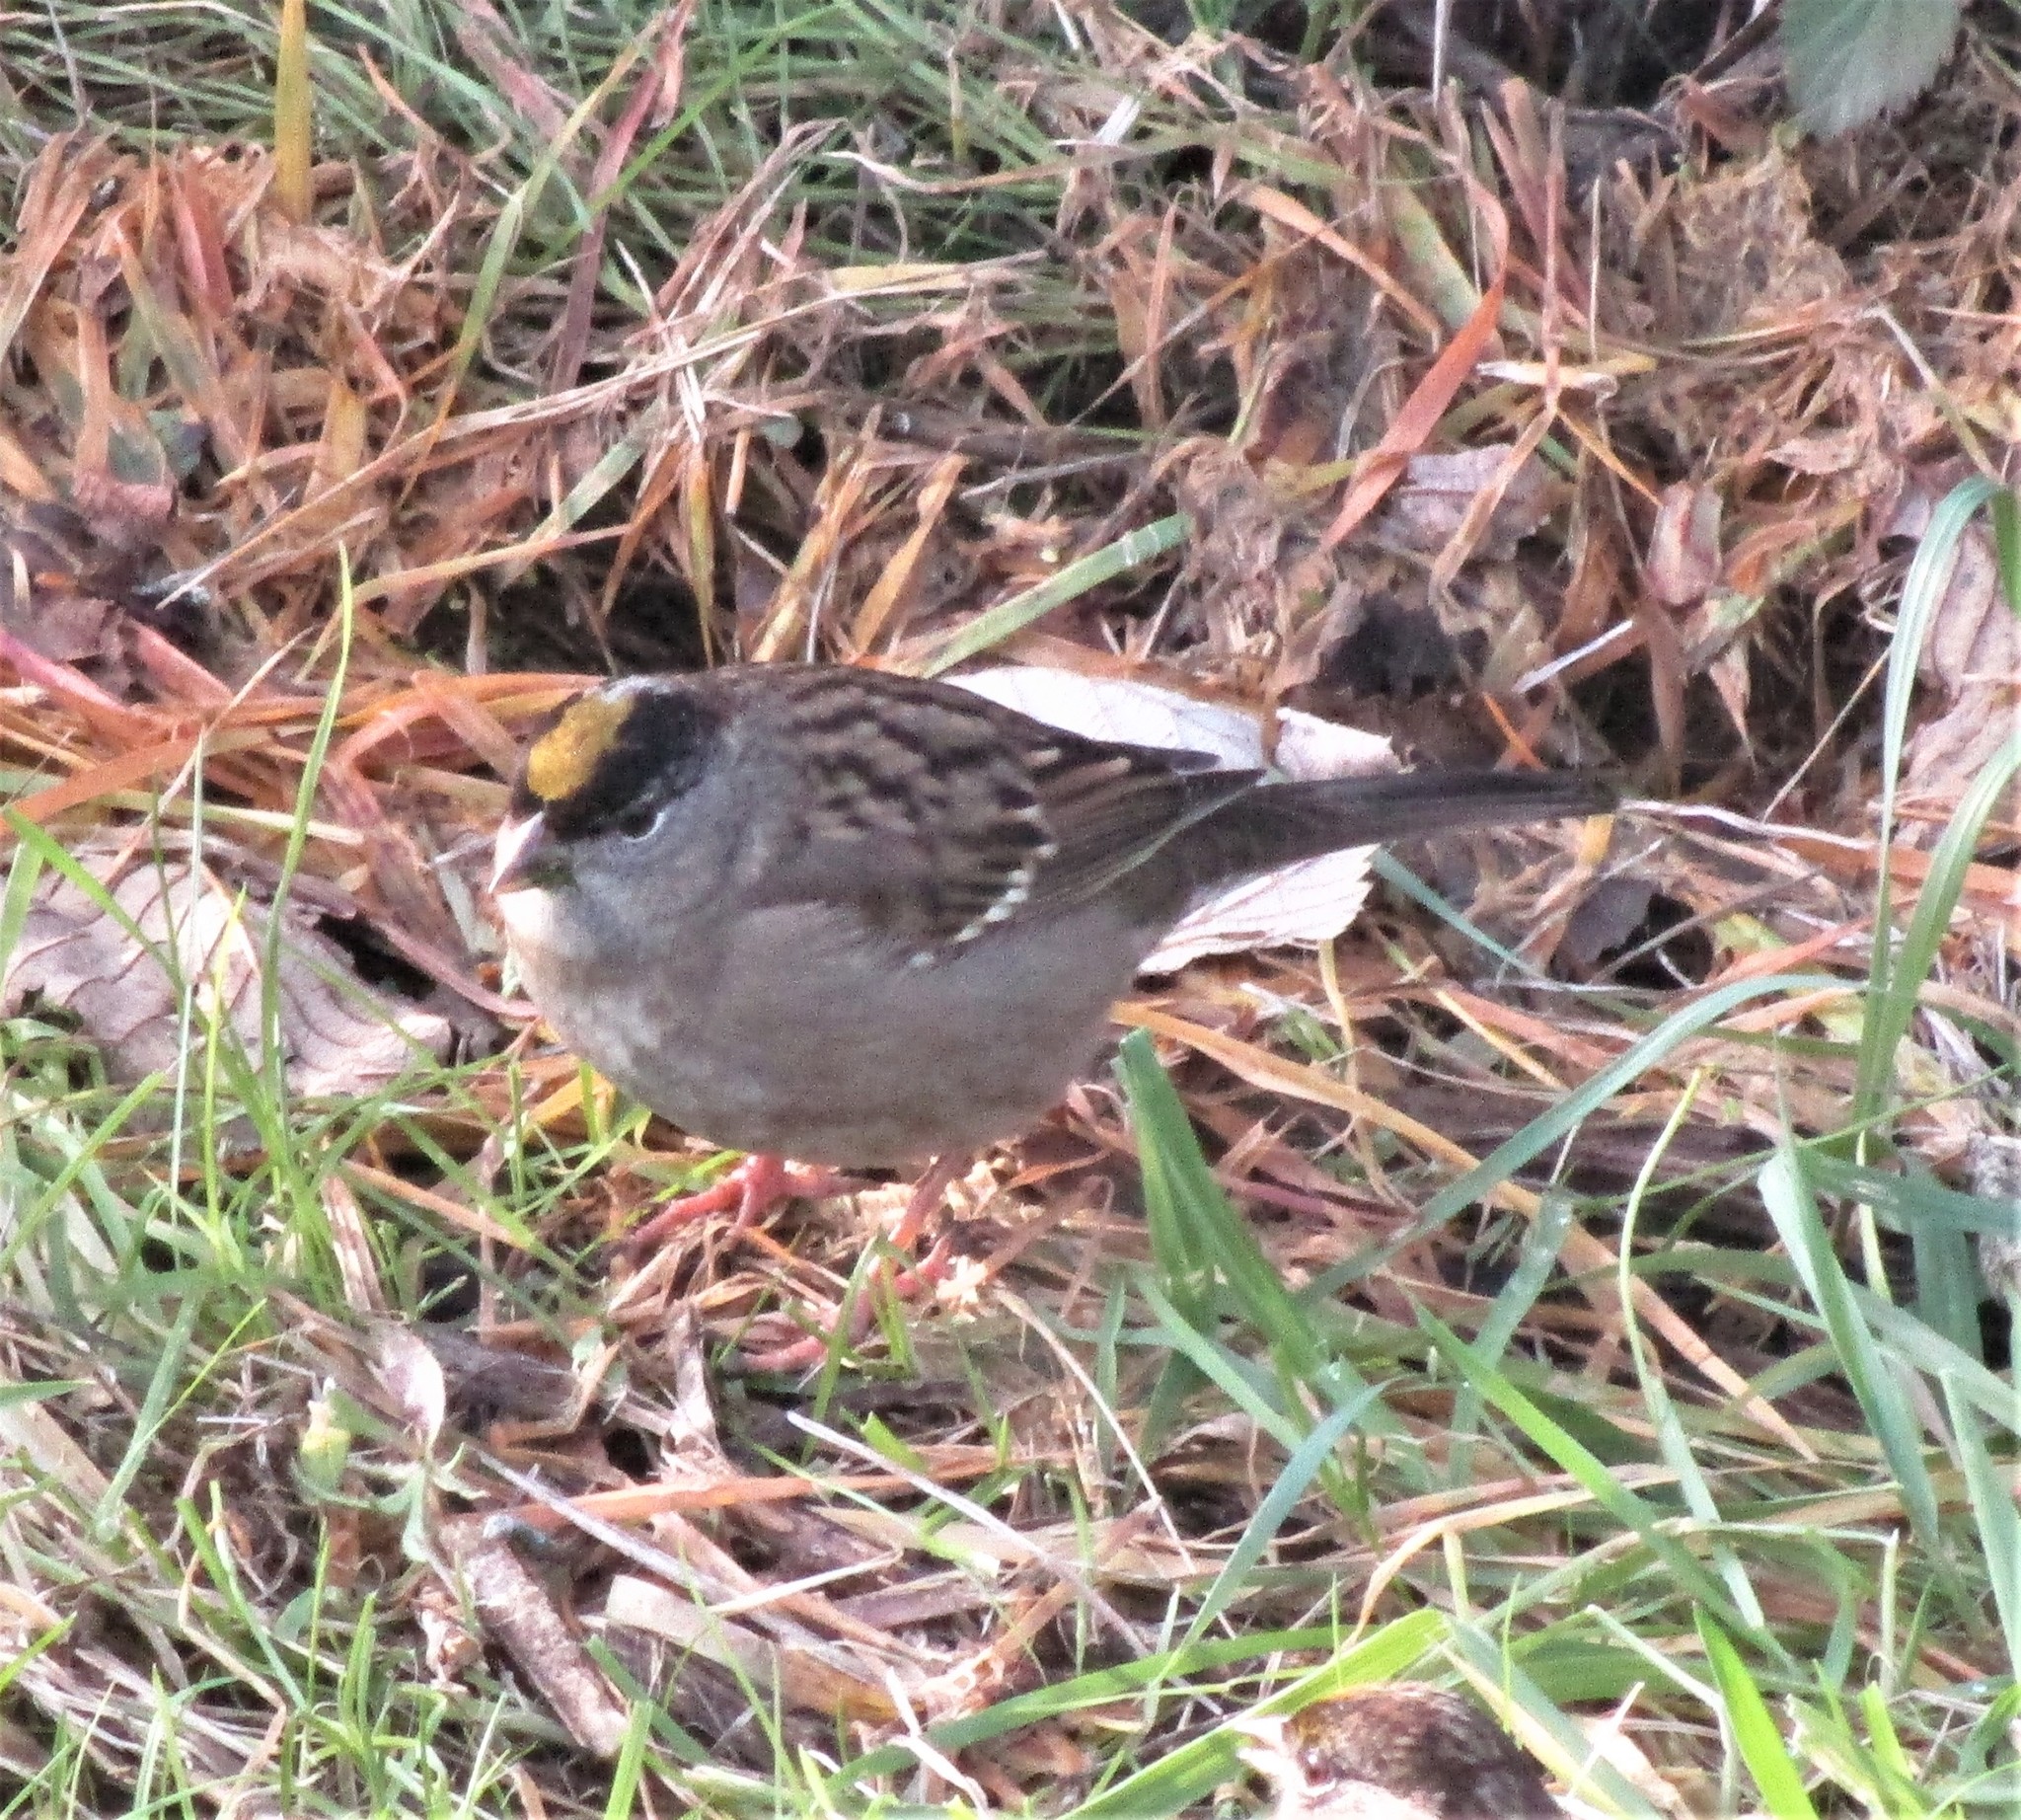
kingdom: Animalia
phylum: Chordata
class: Aves
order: Passeriformes
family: Passerellidae
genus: Zonotrichia
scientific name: Zonotrichia atricapilla
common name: Golden-crowned sparrow
